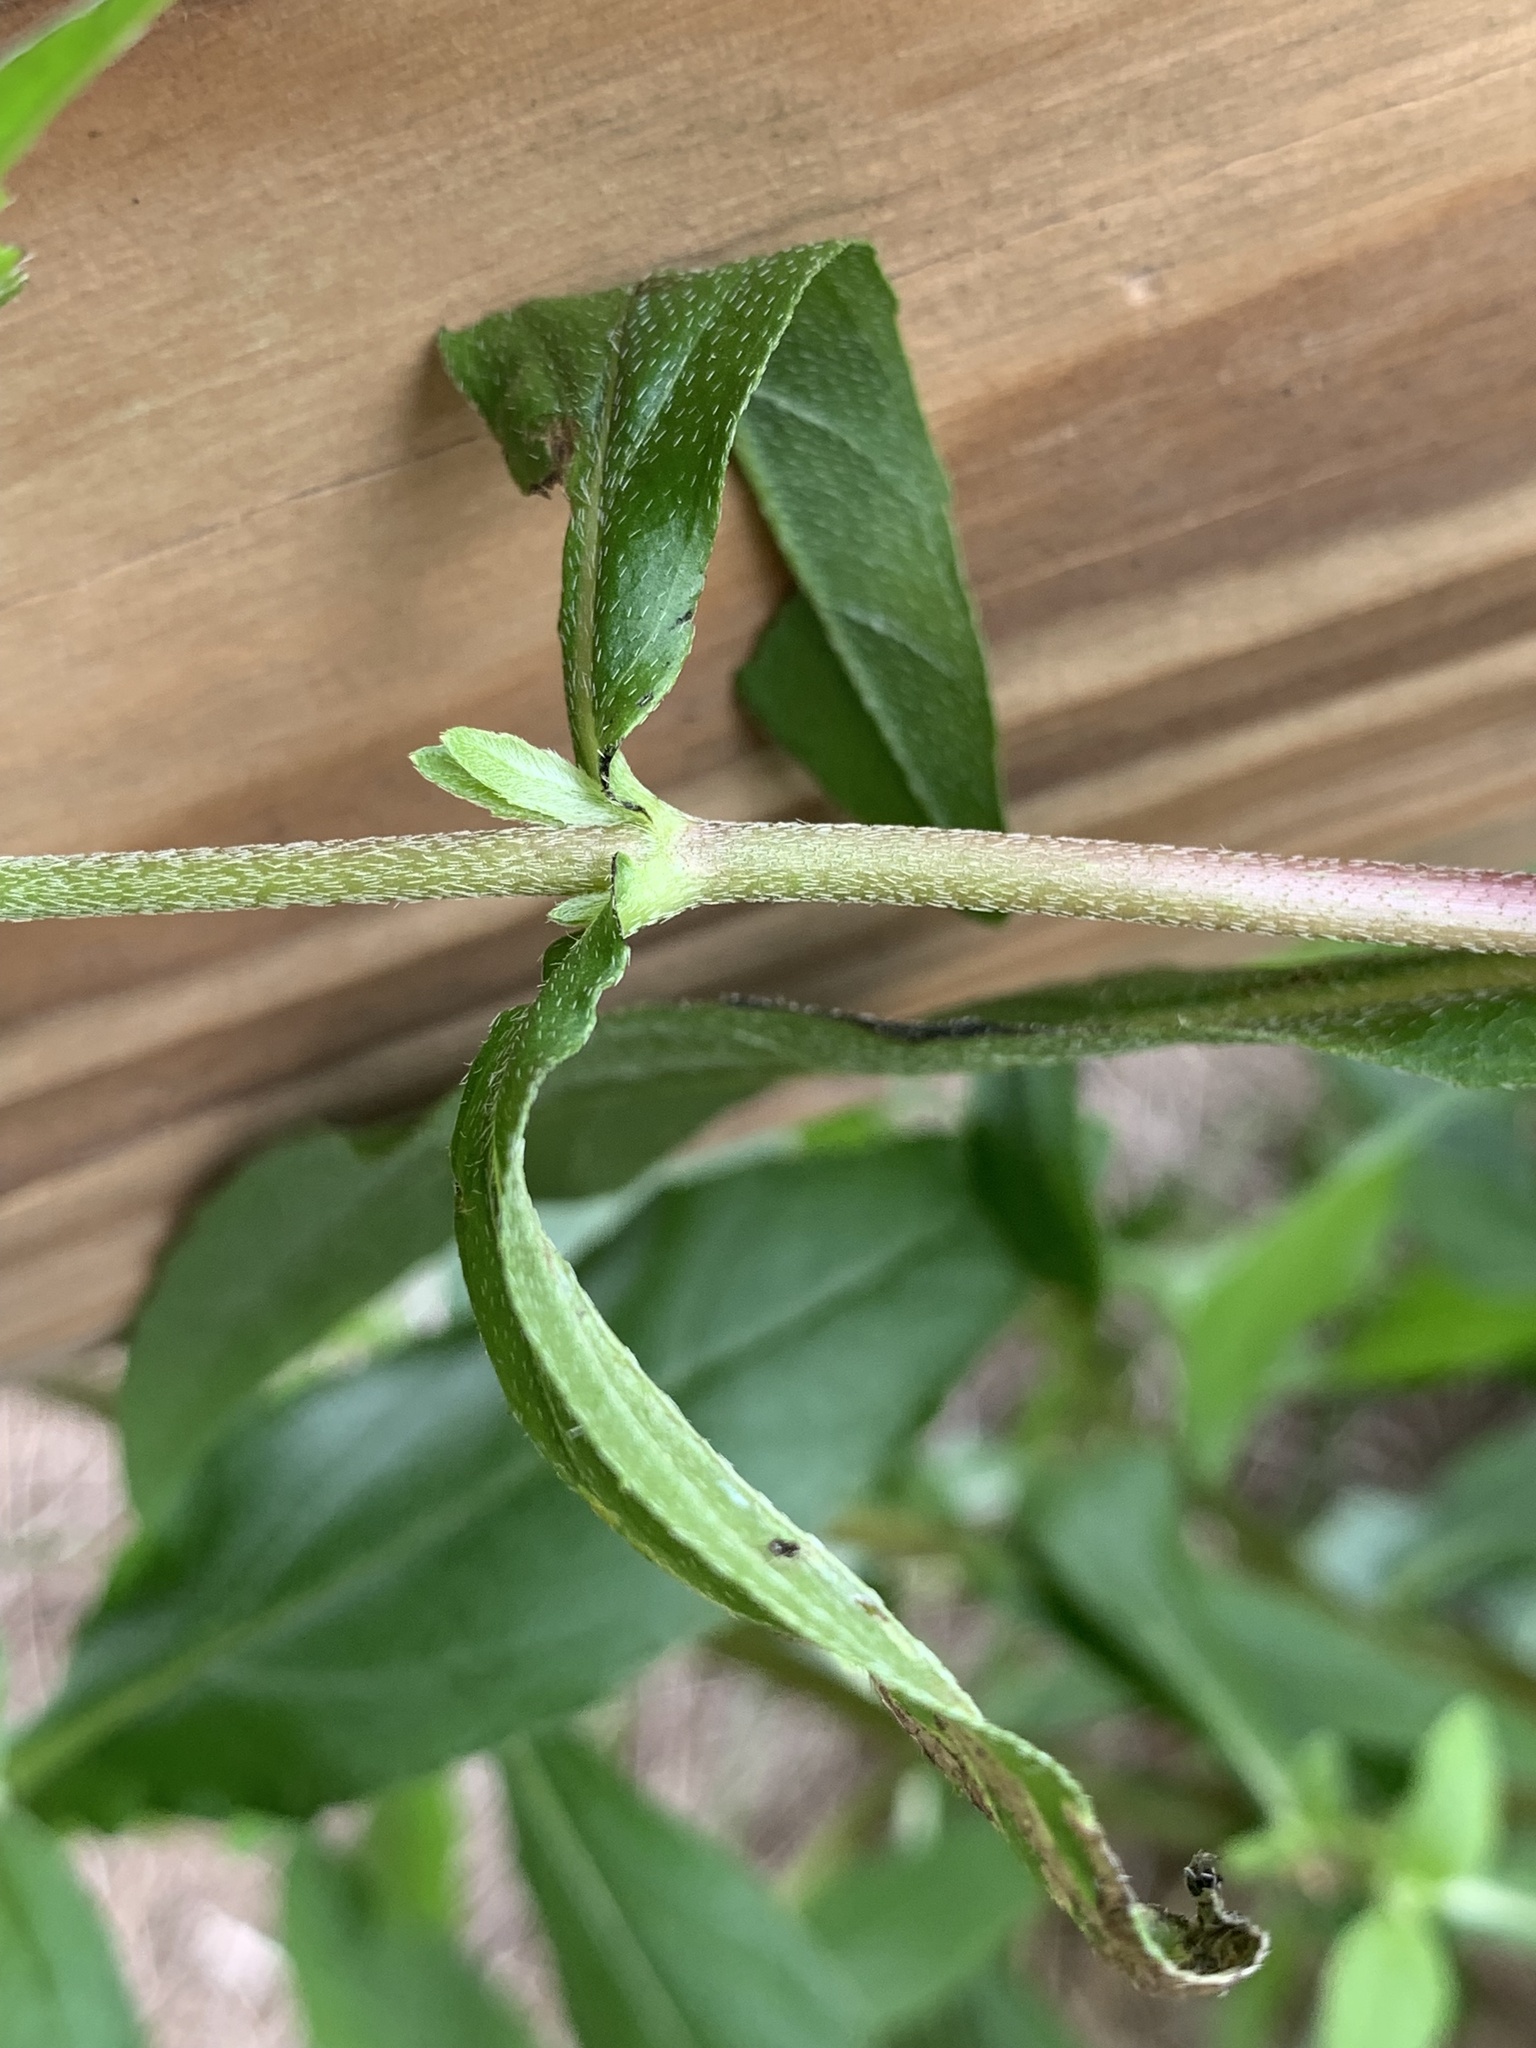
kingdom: Plantae
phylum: Tracheophyta
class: Magnoliopsida
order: Asterales
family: Asteraceae
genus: Eclipta
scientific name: Eclipta prostrata
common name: False daisy
